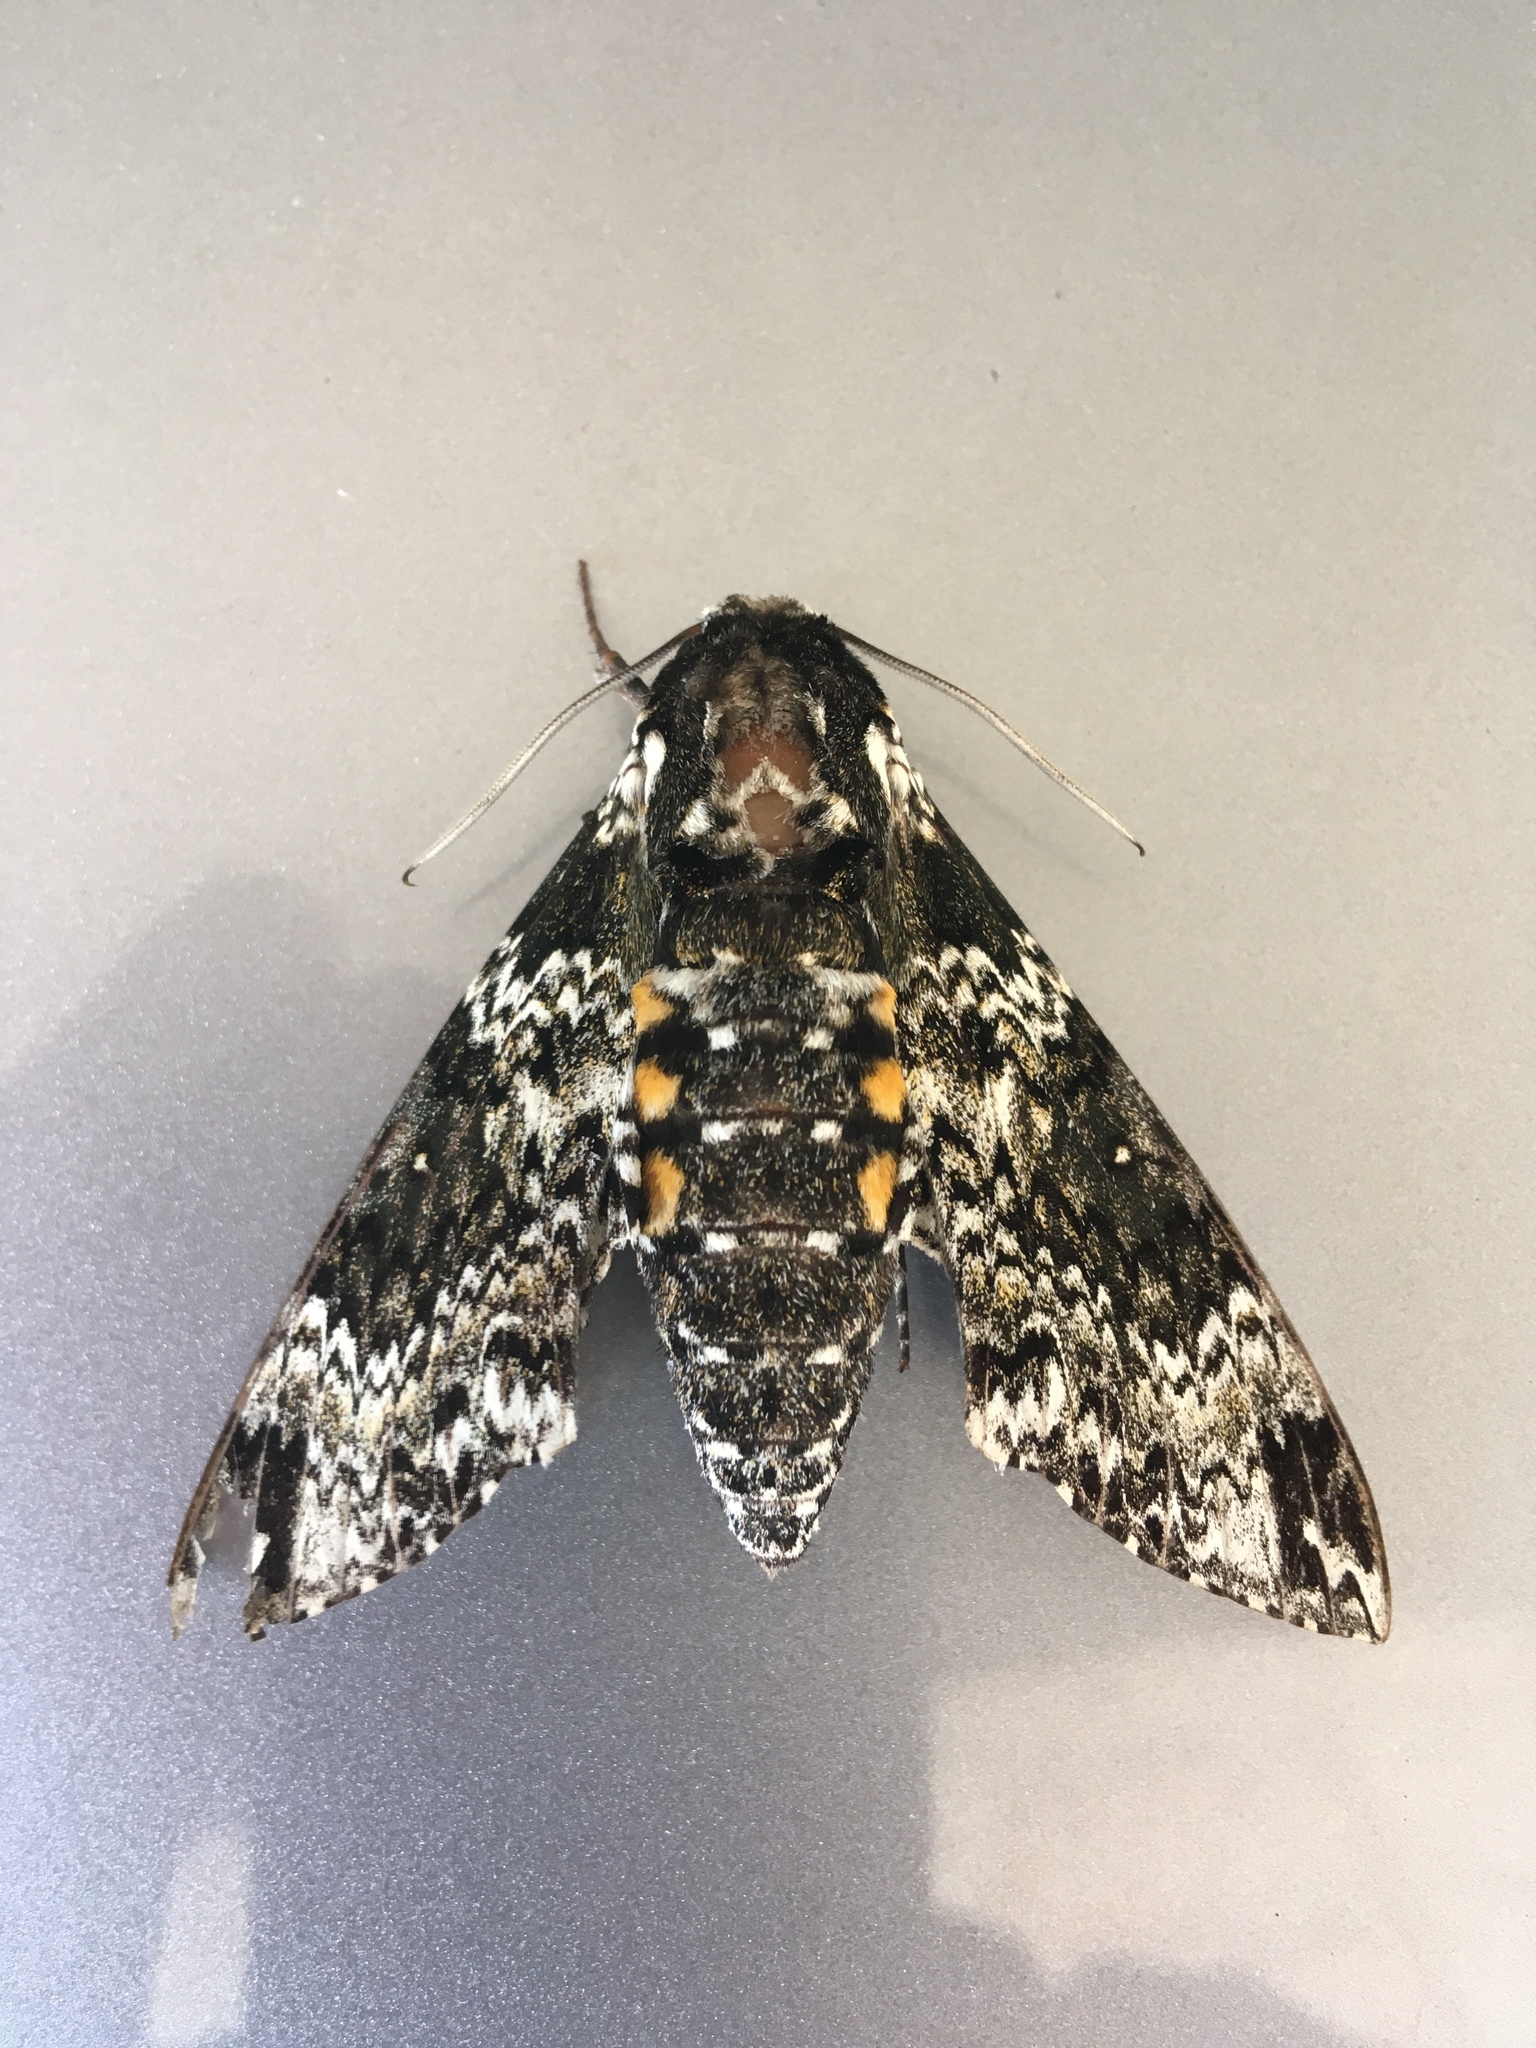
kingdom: Animalia
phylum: Arthropoda
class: Insecta
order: Lepidoptera
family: Sphingidae
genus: Manduca
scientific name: Manduca rustica
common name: Rustic sphinx
